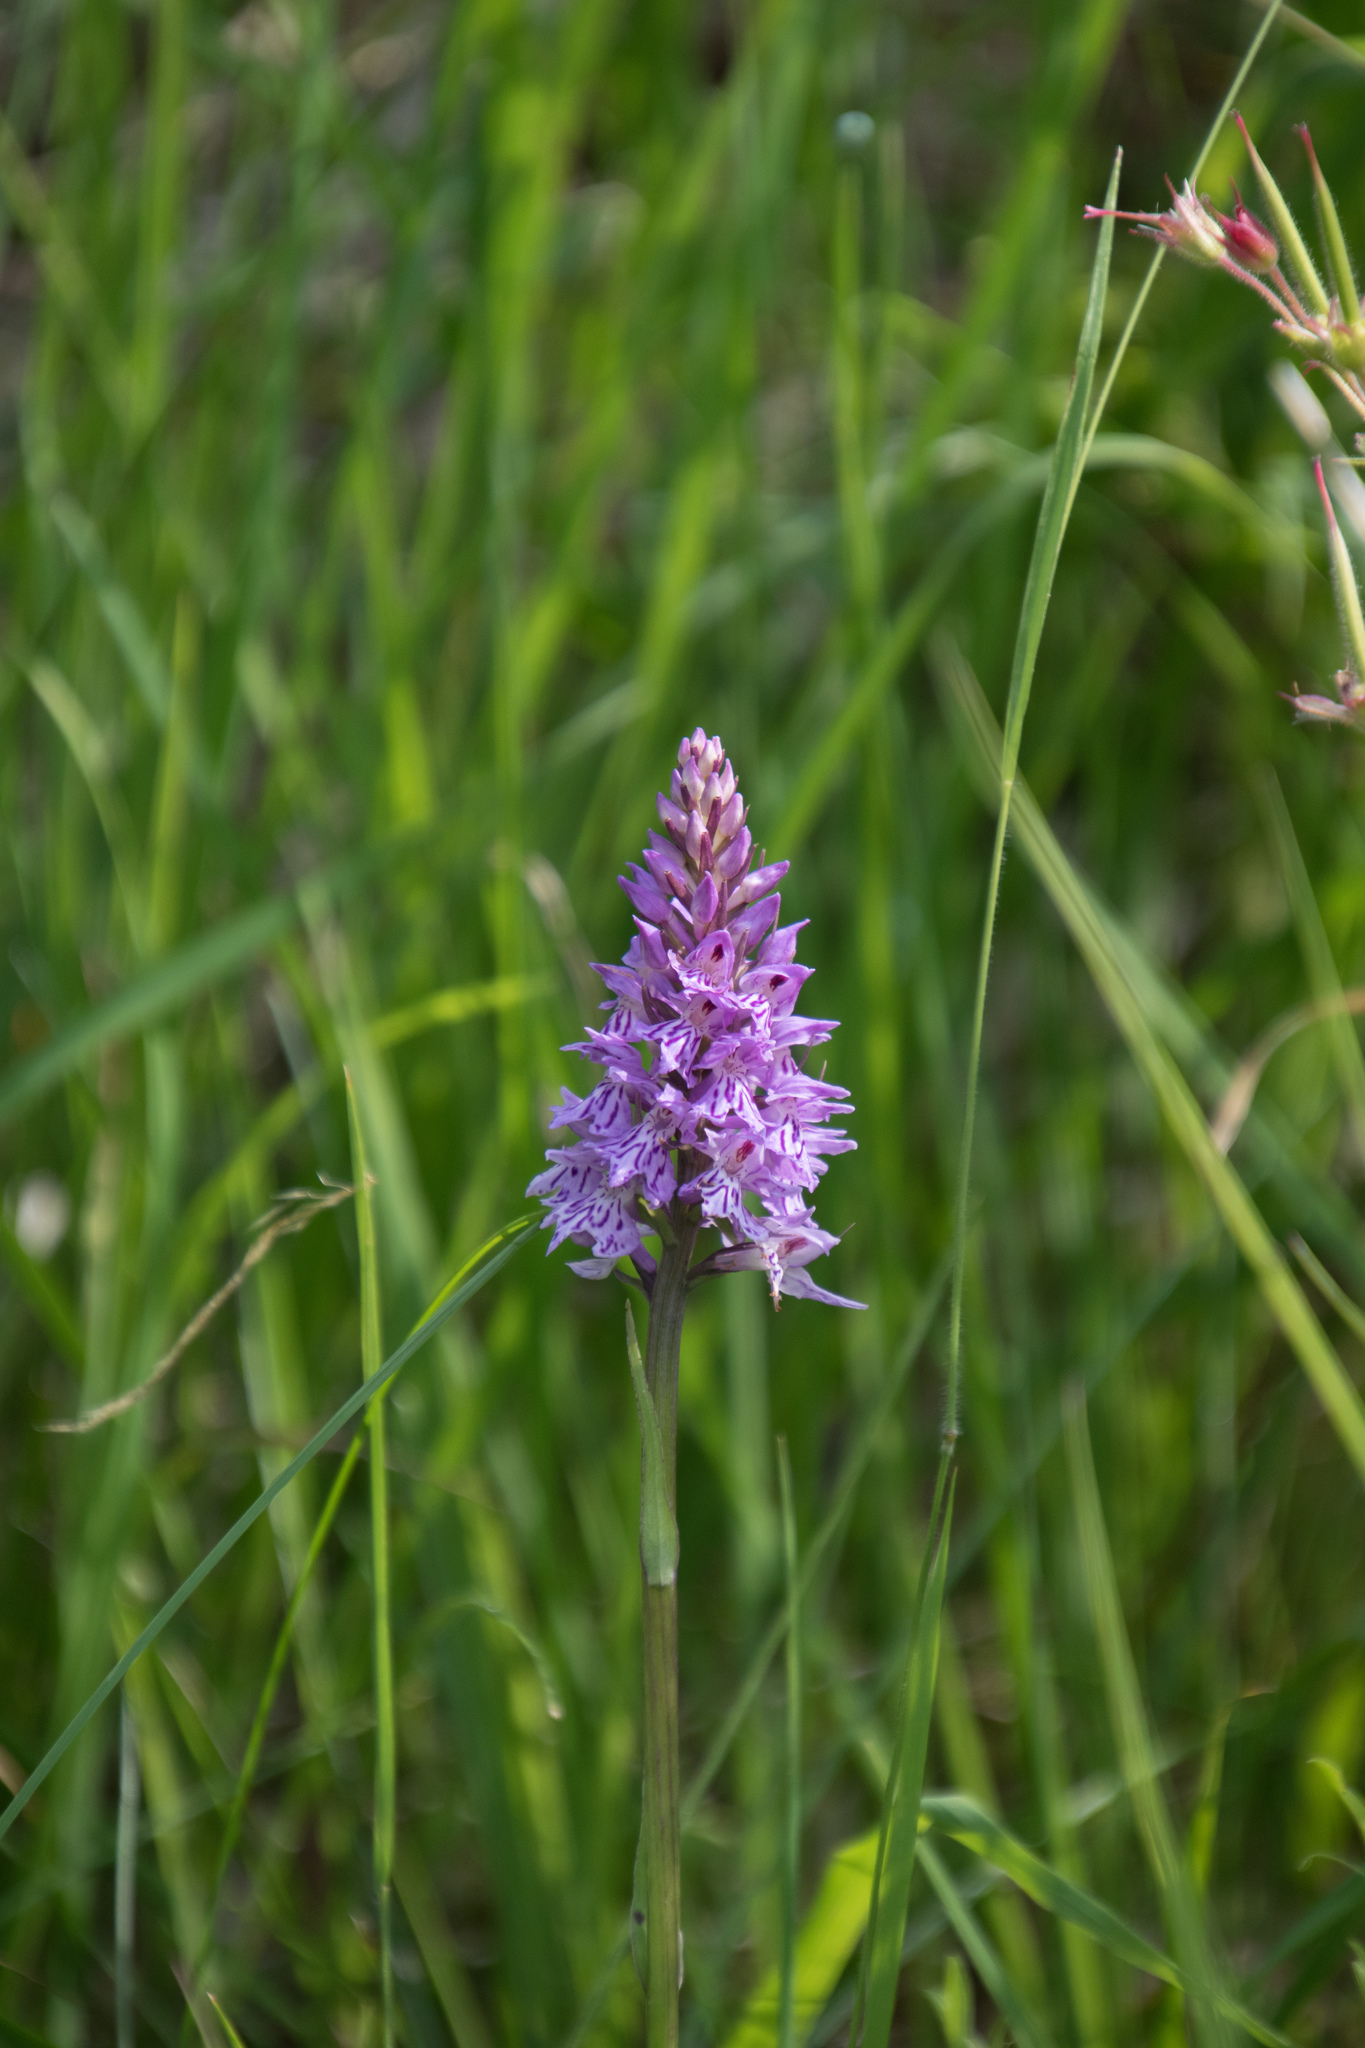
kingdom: Plantae
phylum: Tracheophyta
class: Liliopsida
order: Asparagales
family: Orchidaceae
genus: Dactylorhiza
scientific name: Dactylorhiza maculata
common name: Heath spotted-orchid
